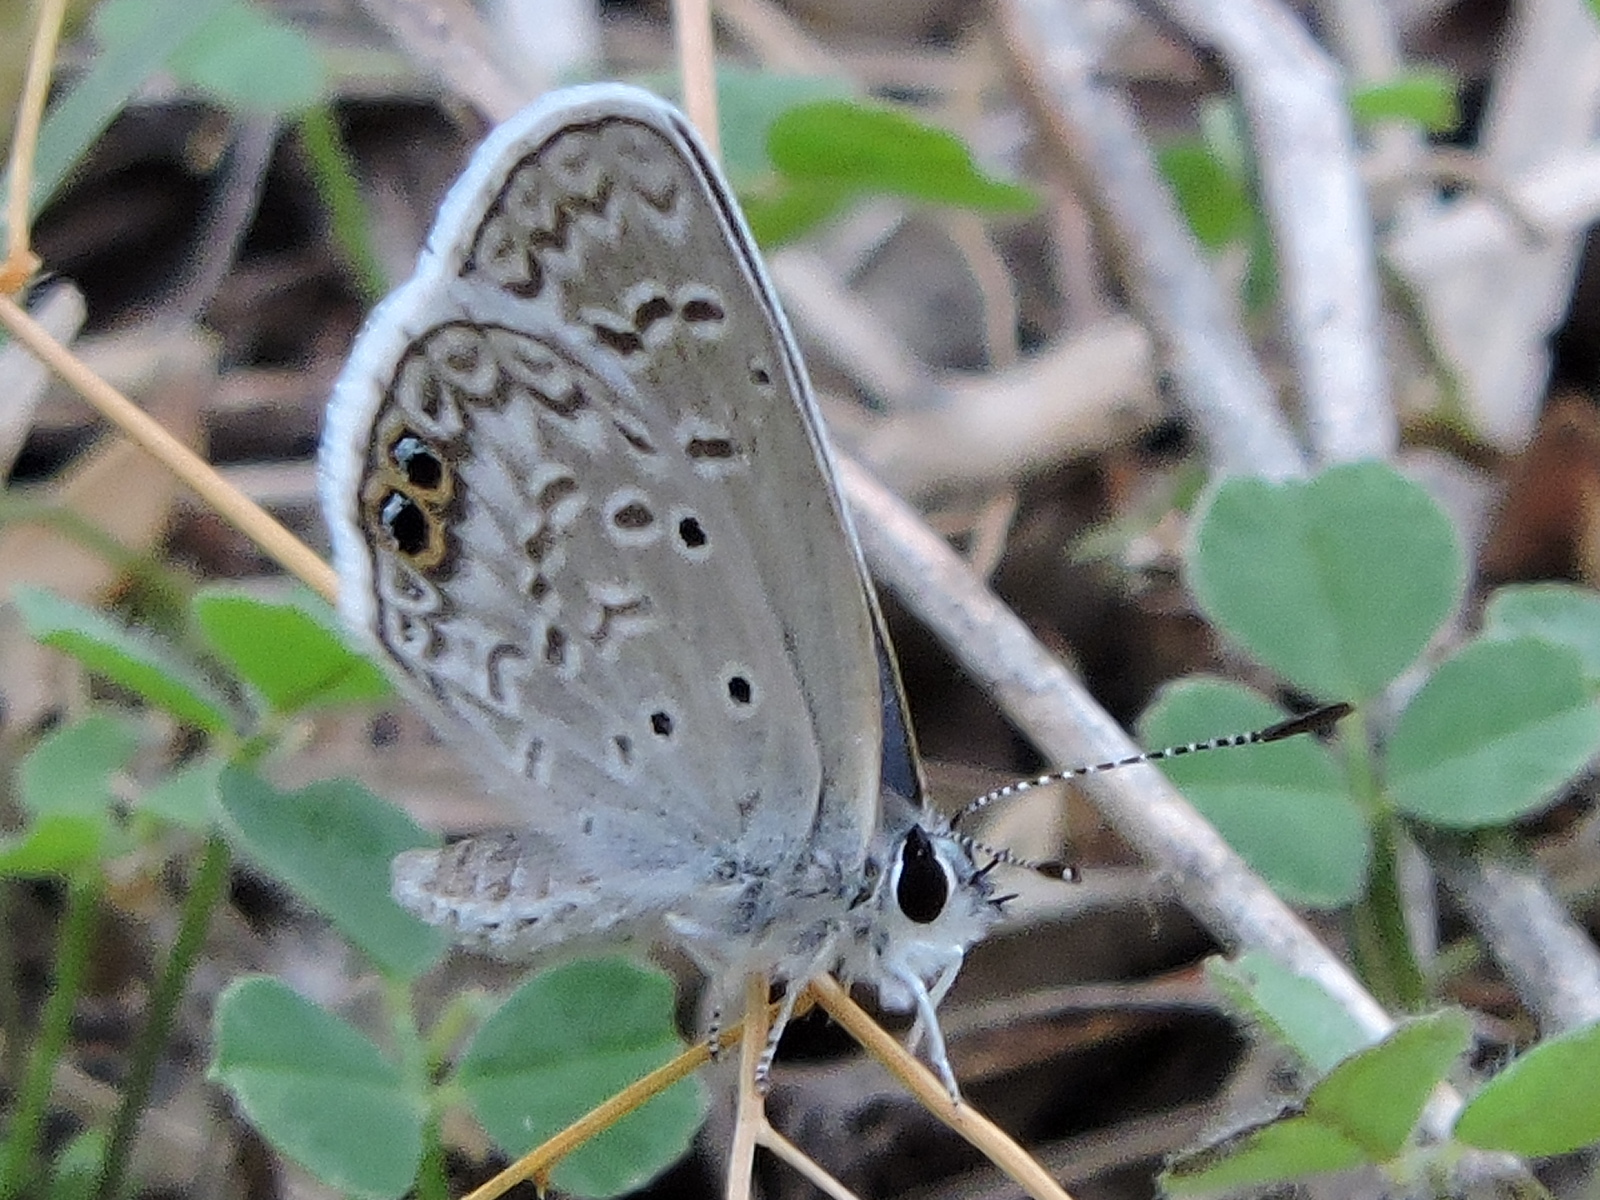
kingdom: Animalia
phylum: Arthropoda
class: Insecta
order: Lepidoptera
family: Lycaenidae
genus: Echinargus
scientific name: Echinargus isola
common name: Reakirt's blue
